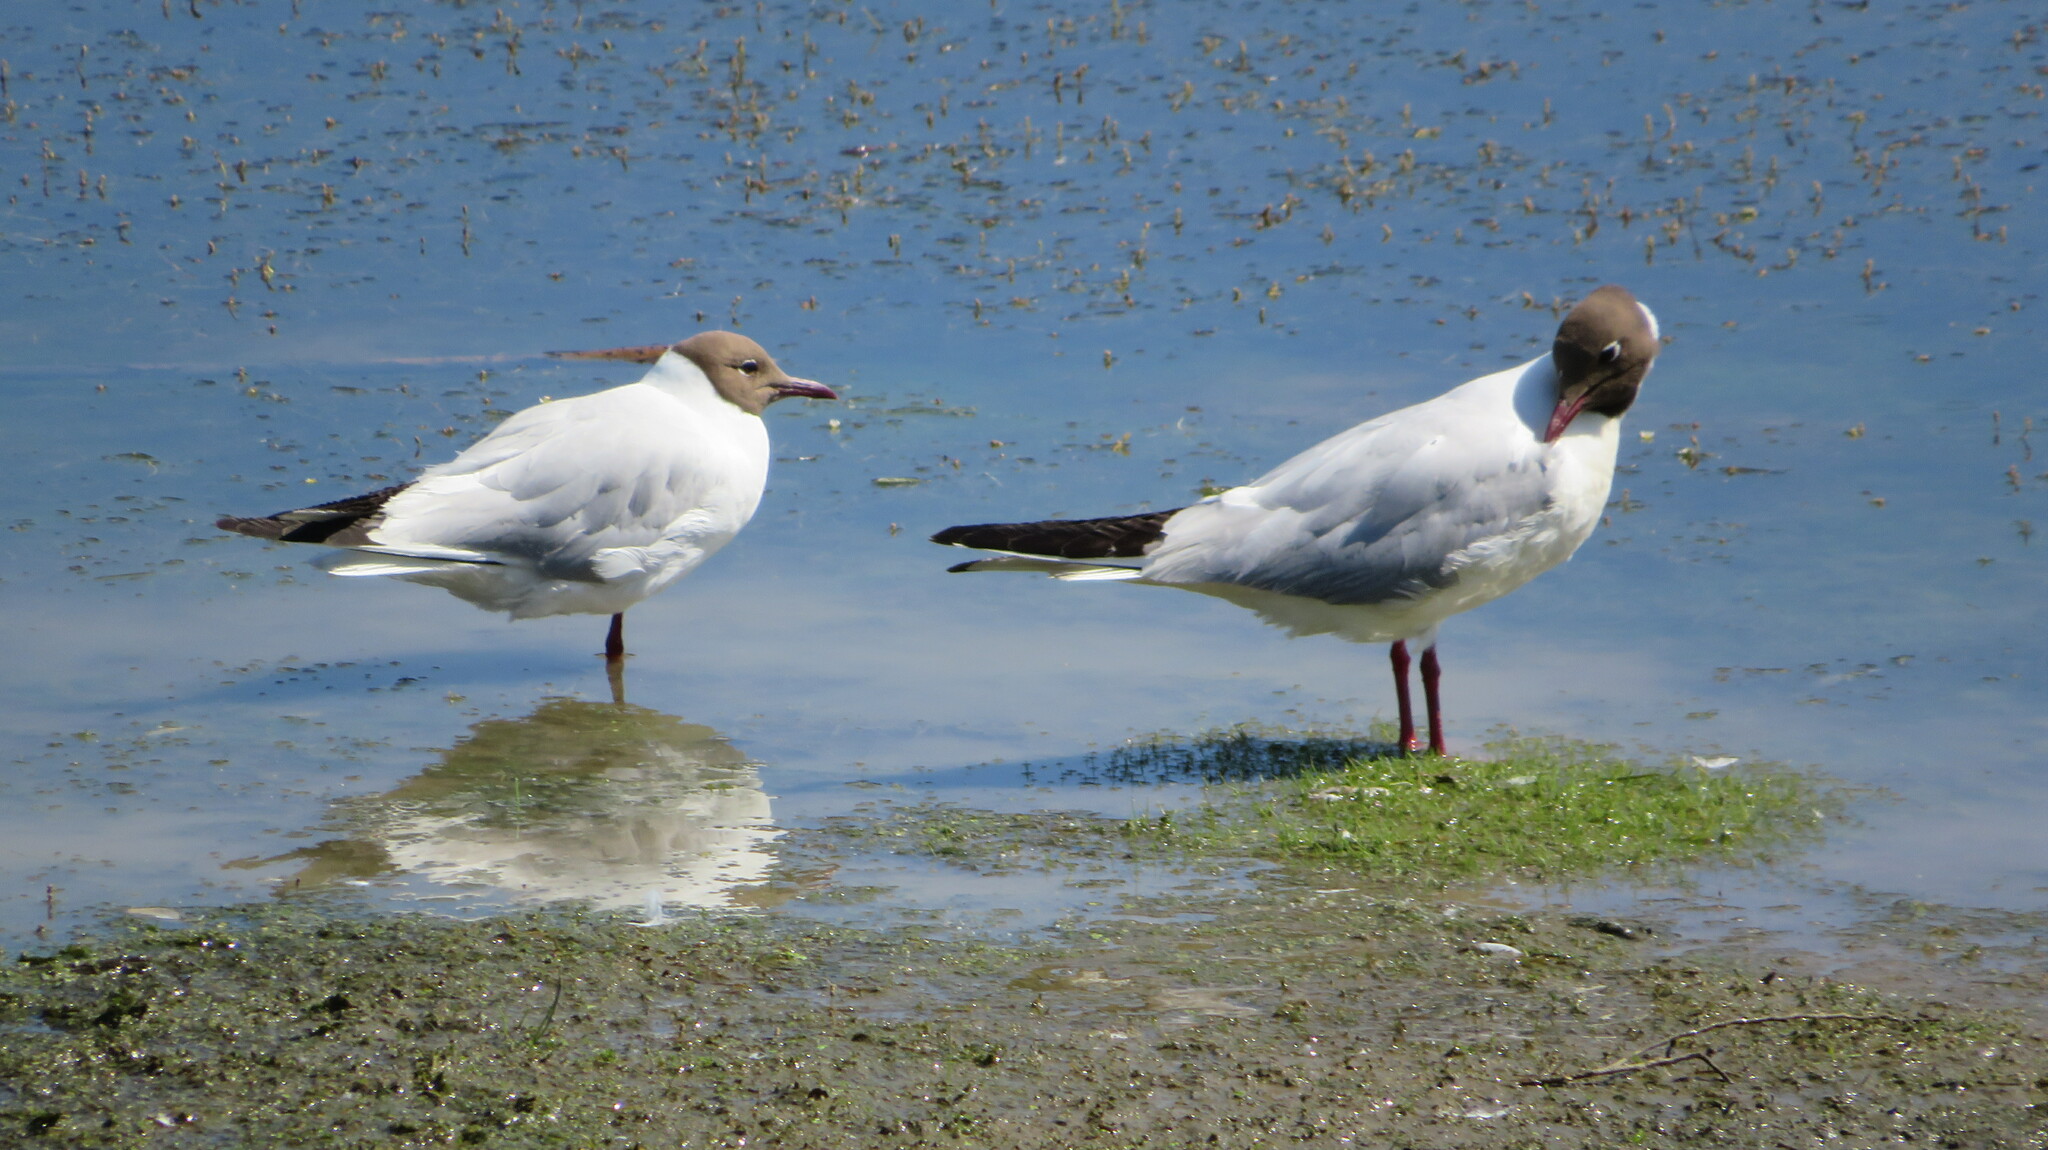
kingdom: Animalia
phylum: Chordata
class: Aves
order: Charadriiformes
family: Laridae
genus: Chroicocephalus
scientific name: Chroicocephalus ridibundus
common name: Black-headed gull
